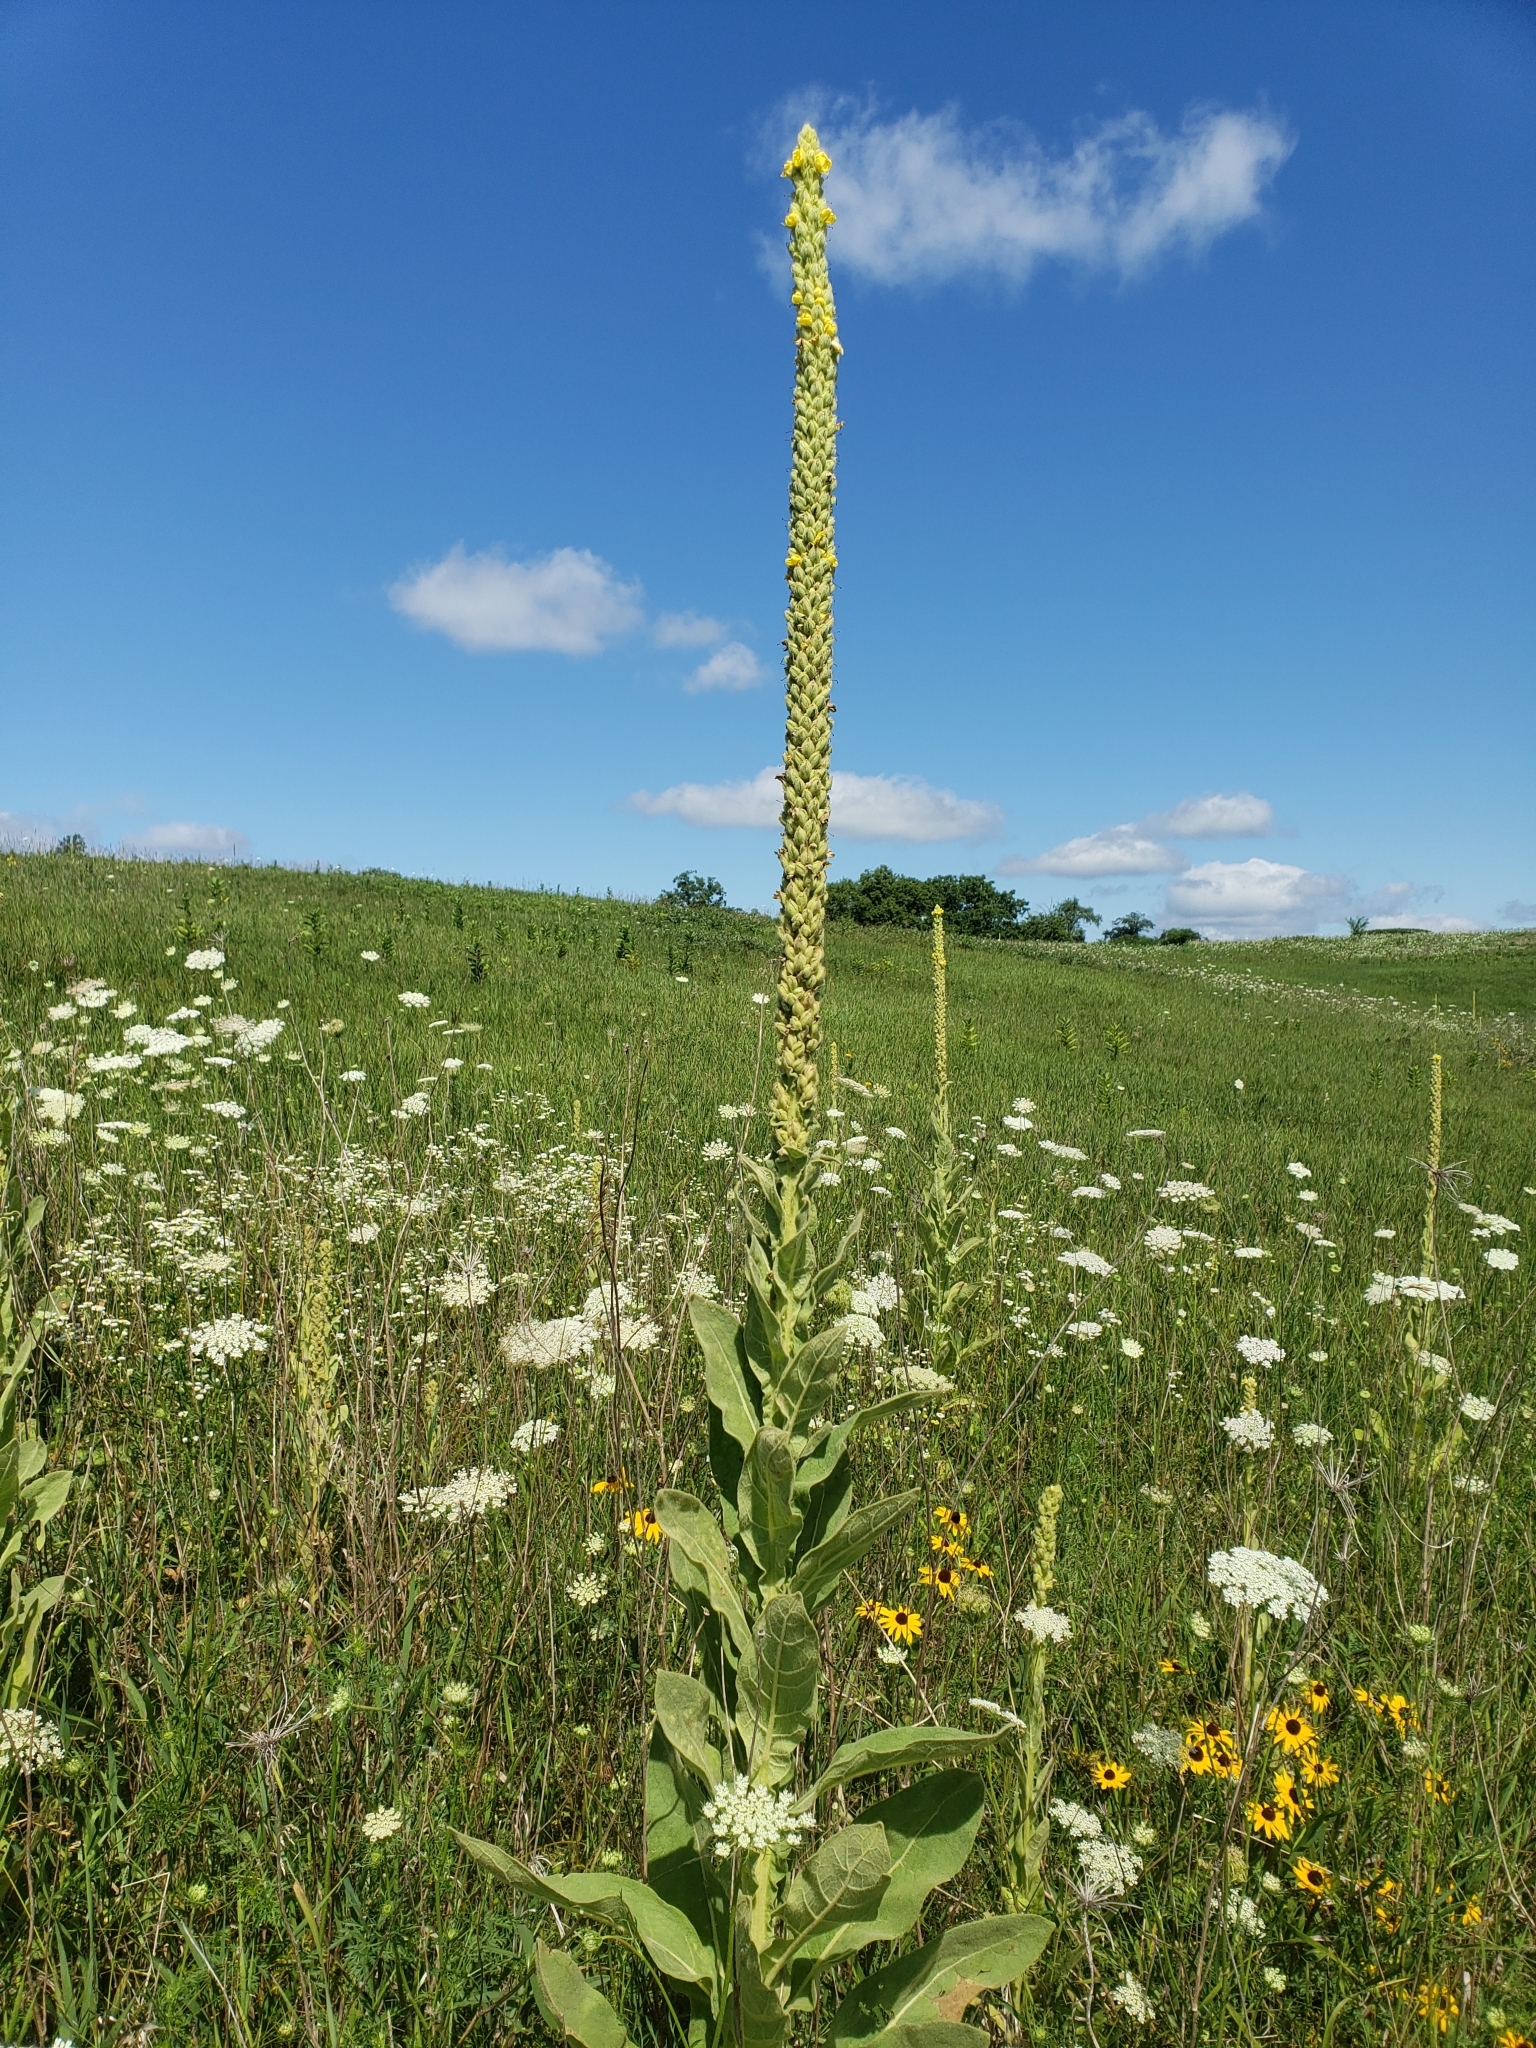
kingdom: Plantae
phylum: Tracheophyta
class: Magnoliopsida
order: Lamiales
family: Scrophulariaceae
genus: Verbascum
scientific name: Verbascum thapsus
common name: Common mullein
